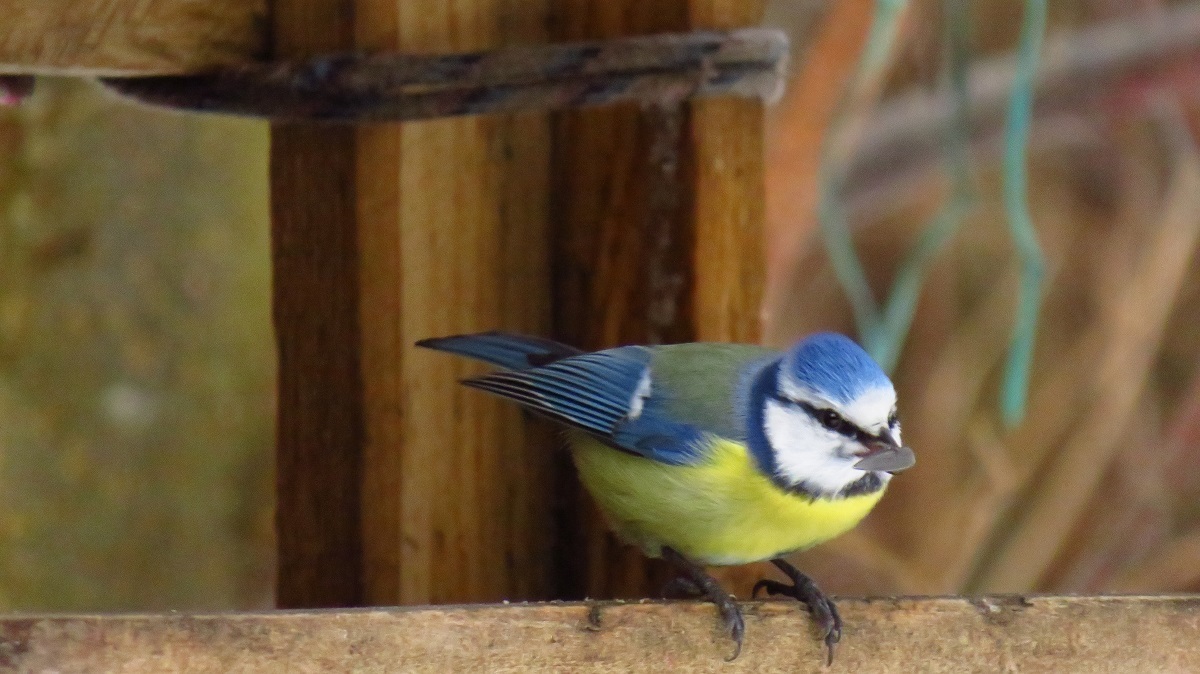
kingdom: Animalia
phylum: Chordata
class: Aves
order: Passeriformes
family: Paridae
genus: Cyanistes
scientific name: Cyanistes caeruleus
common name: Eurasian blue tit
